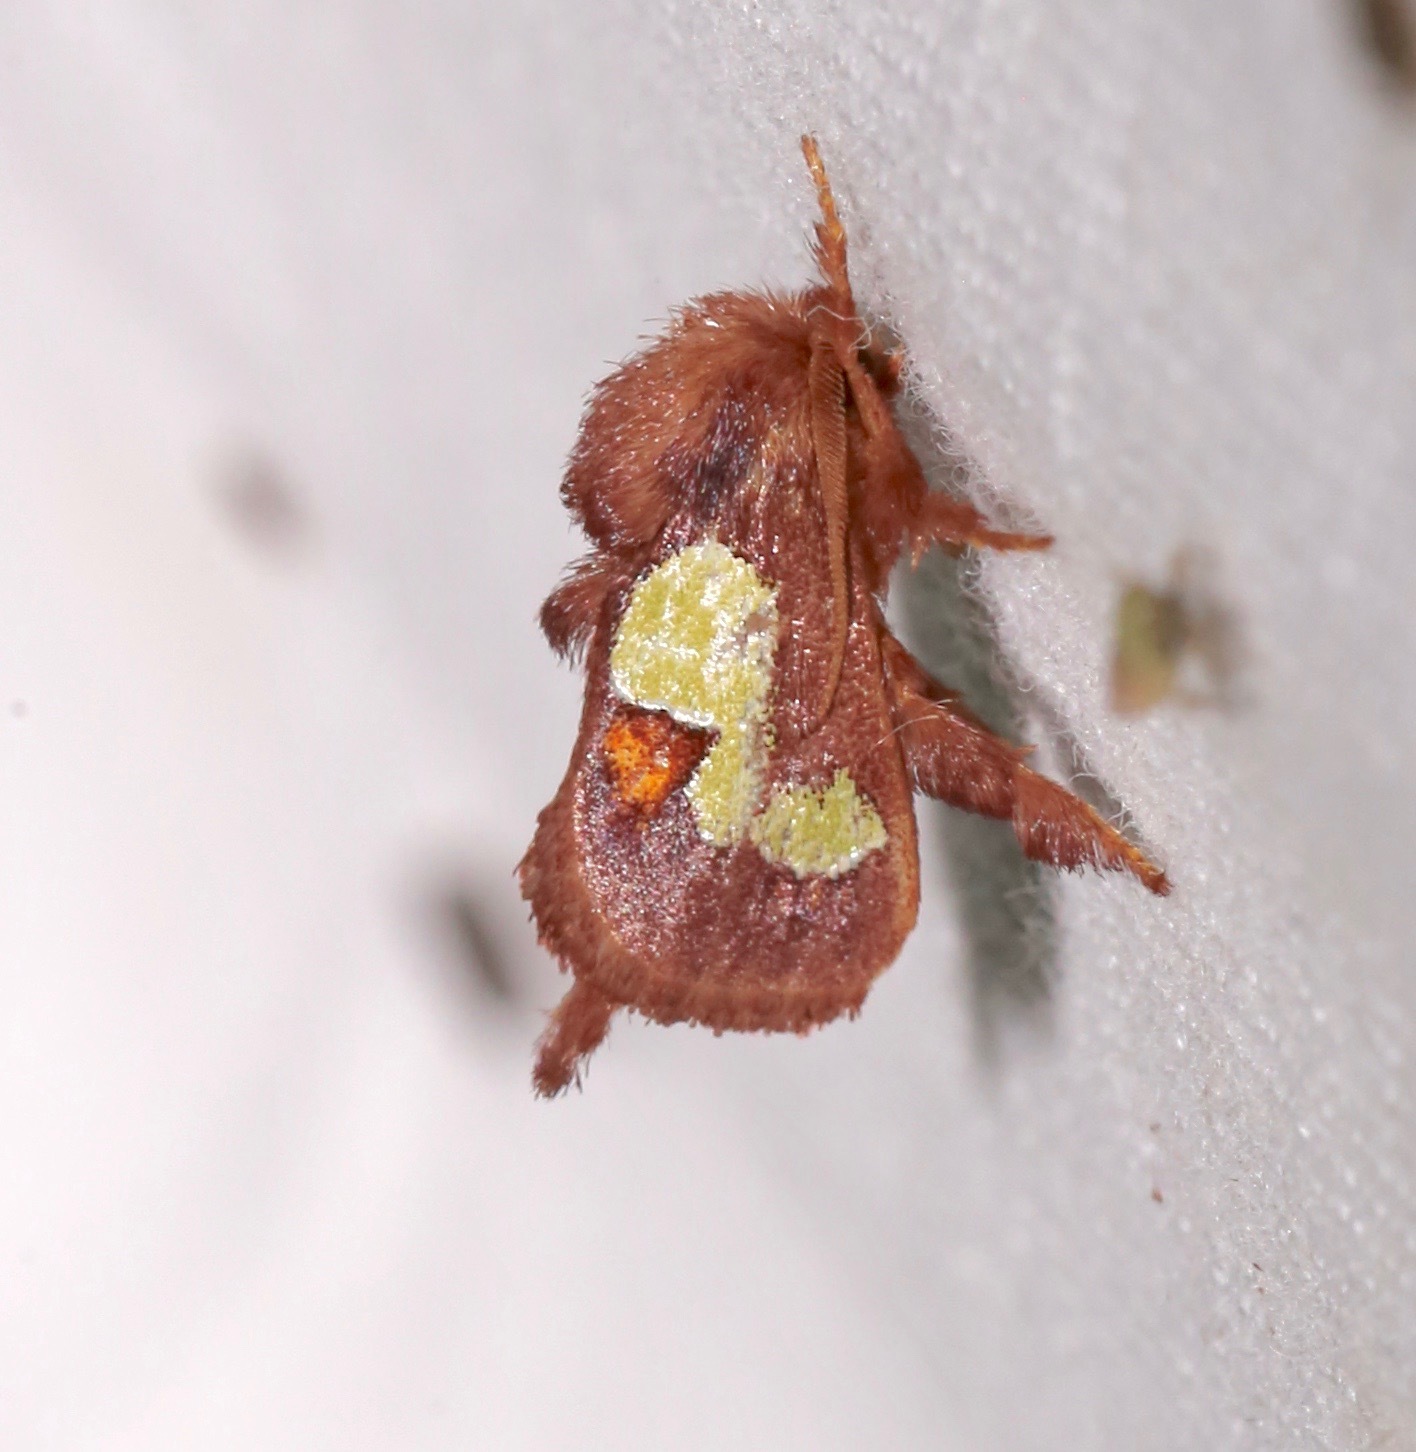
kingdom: Animalia
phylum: Arthropoda
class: Insecta
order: Lepidoptera
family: Limacodidae
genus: Euclea
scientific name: Euclea nanina
